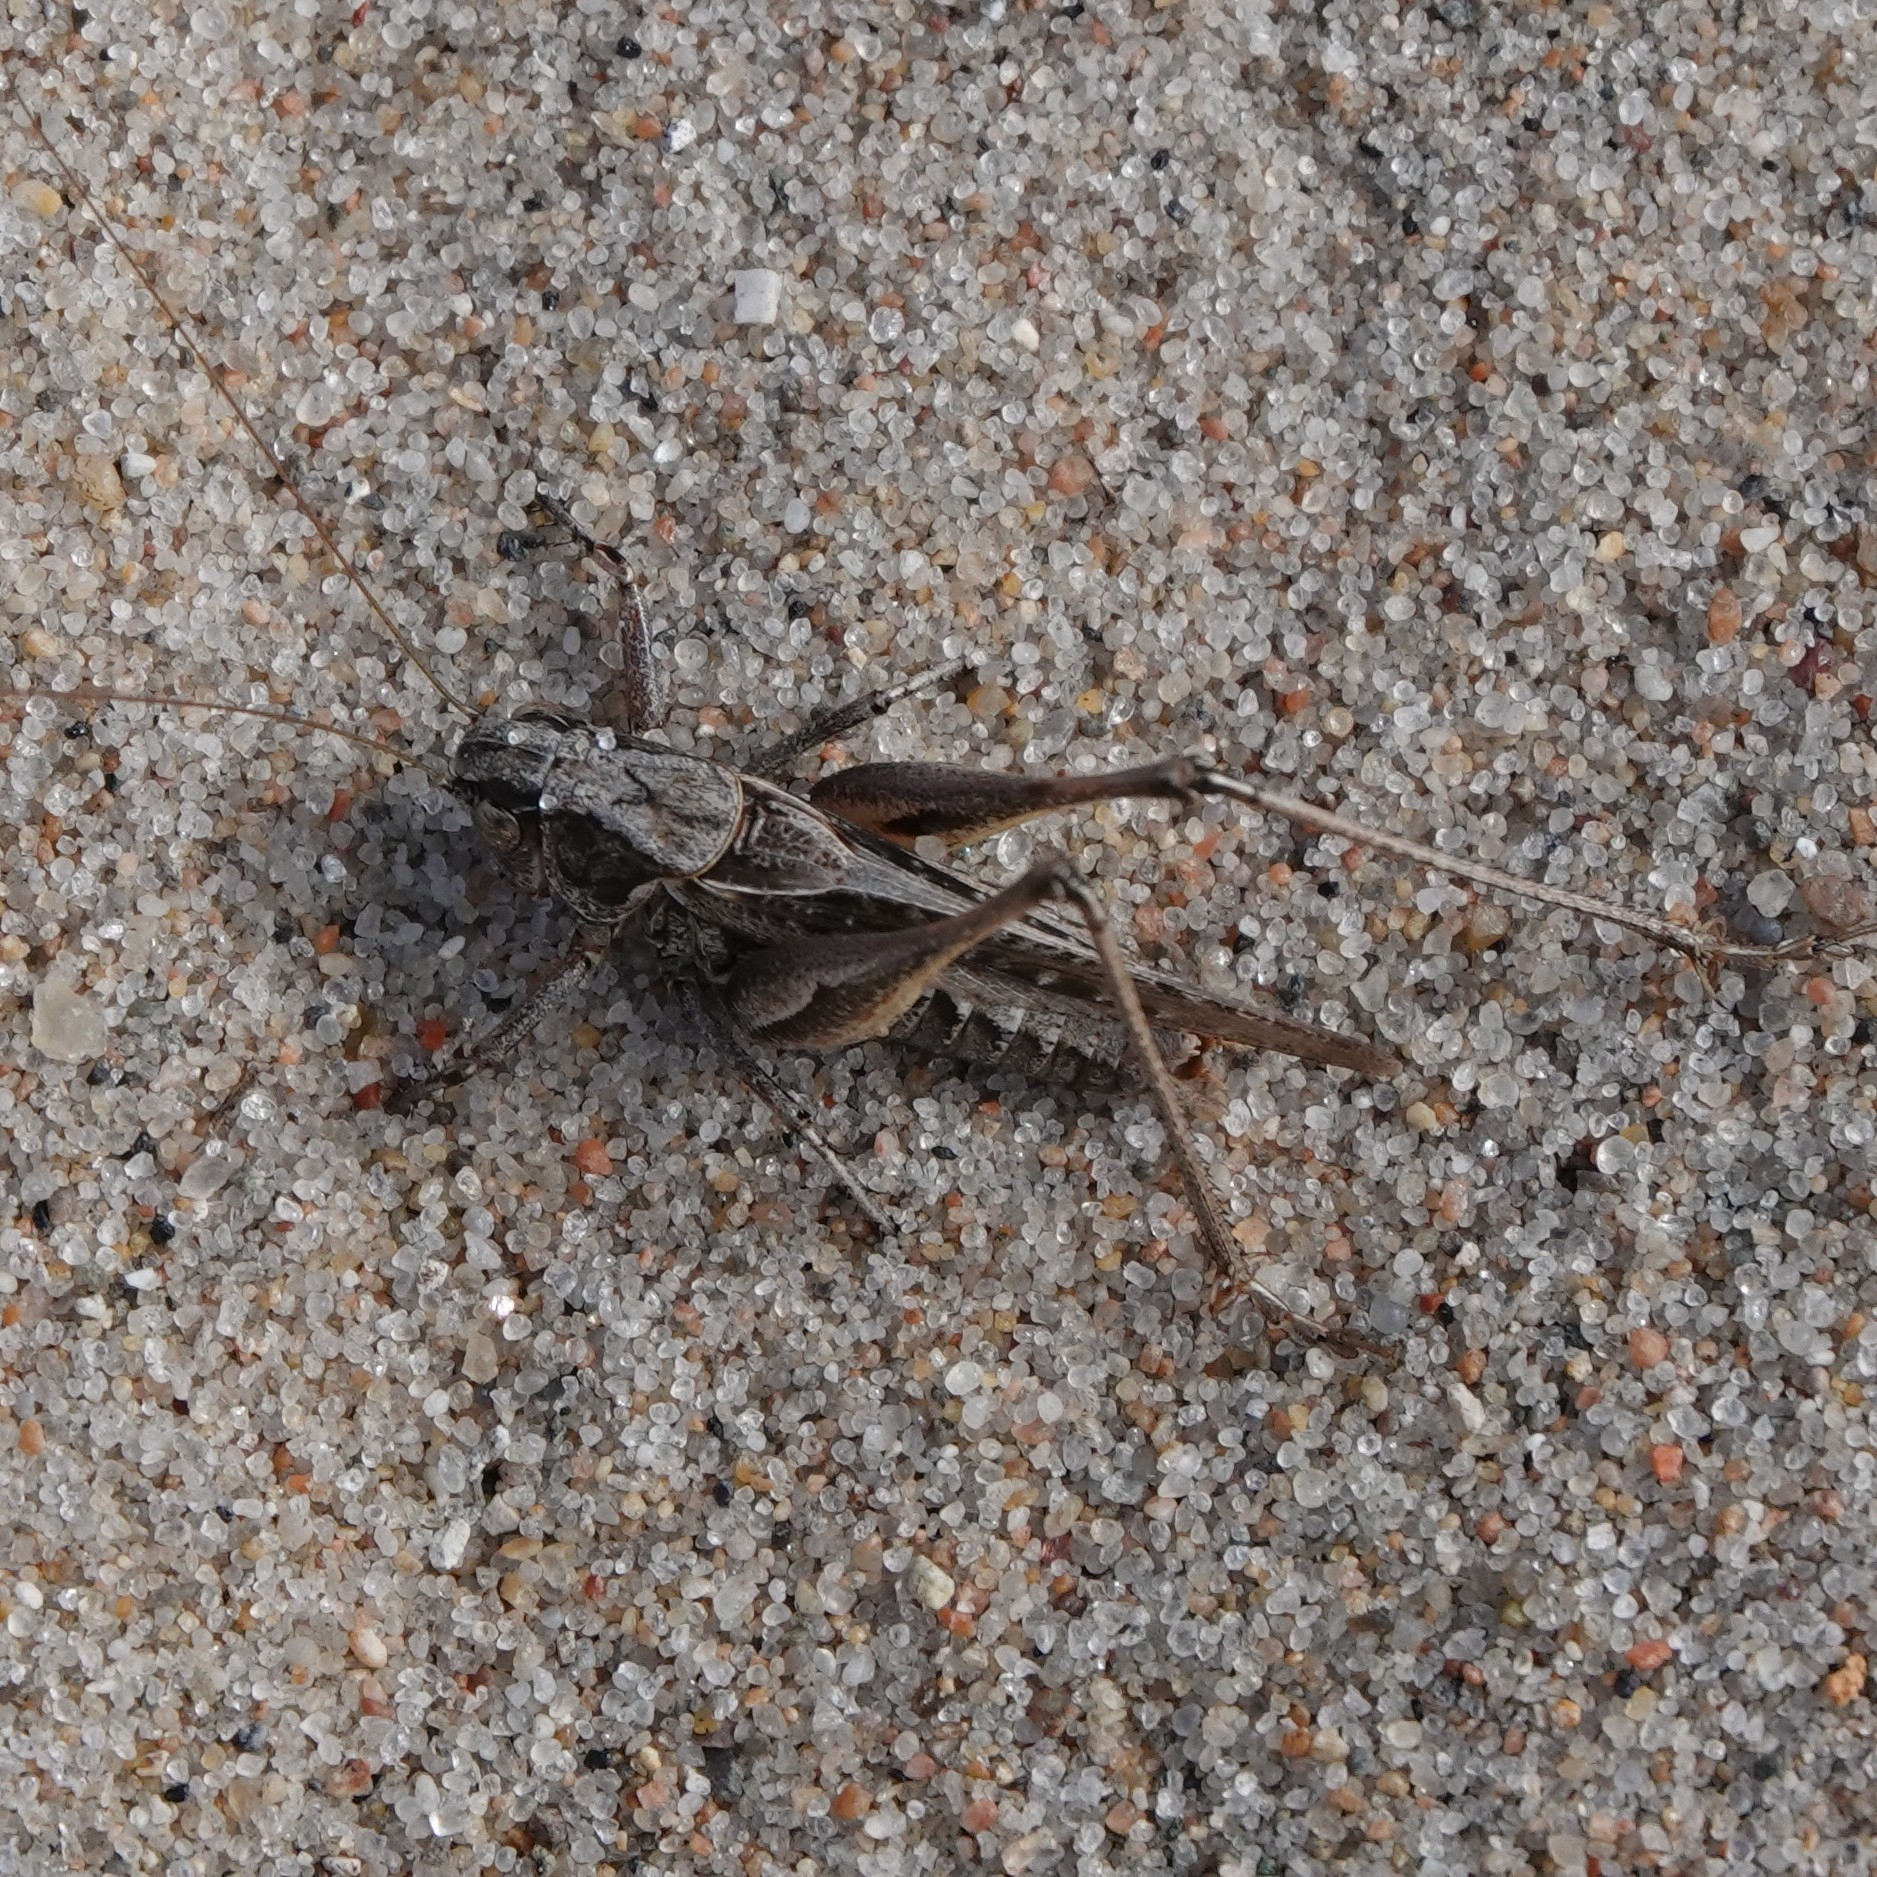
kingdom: Animalia
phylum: Arthropoda
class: Insecta
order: Orthoptera
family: Tettigoniidae
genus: Platycleis
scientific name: Platycleis albopunctata
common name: Grey bush-cricket
